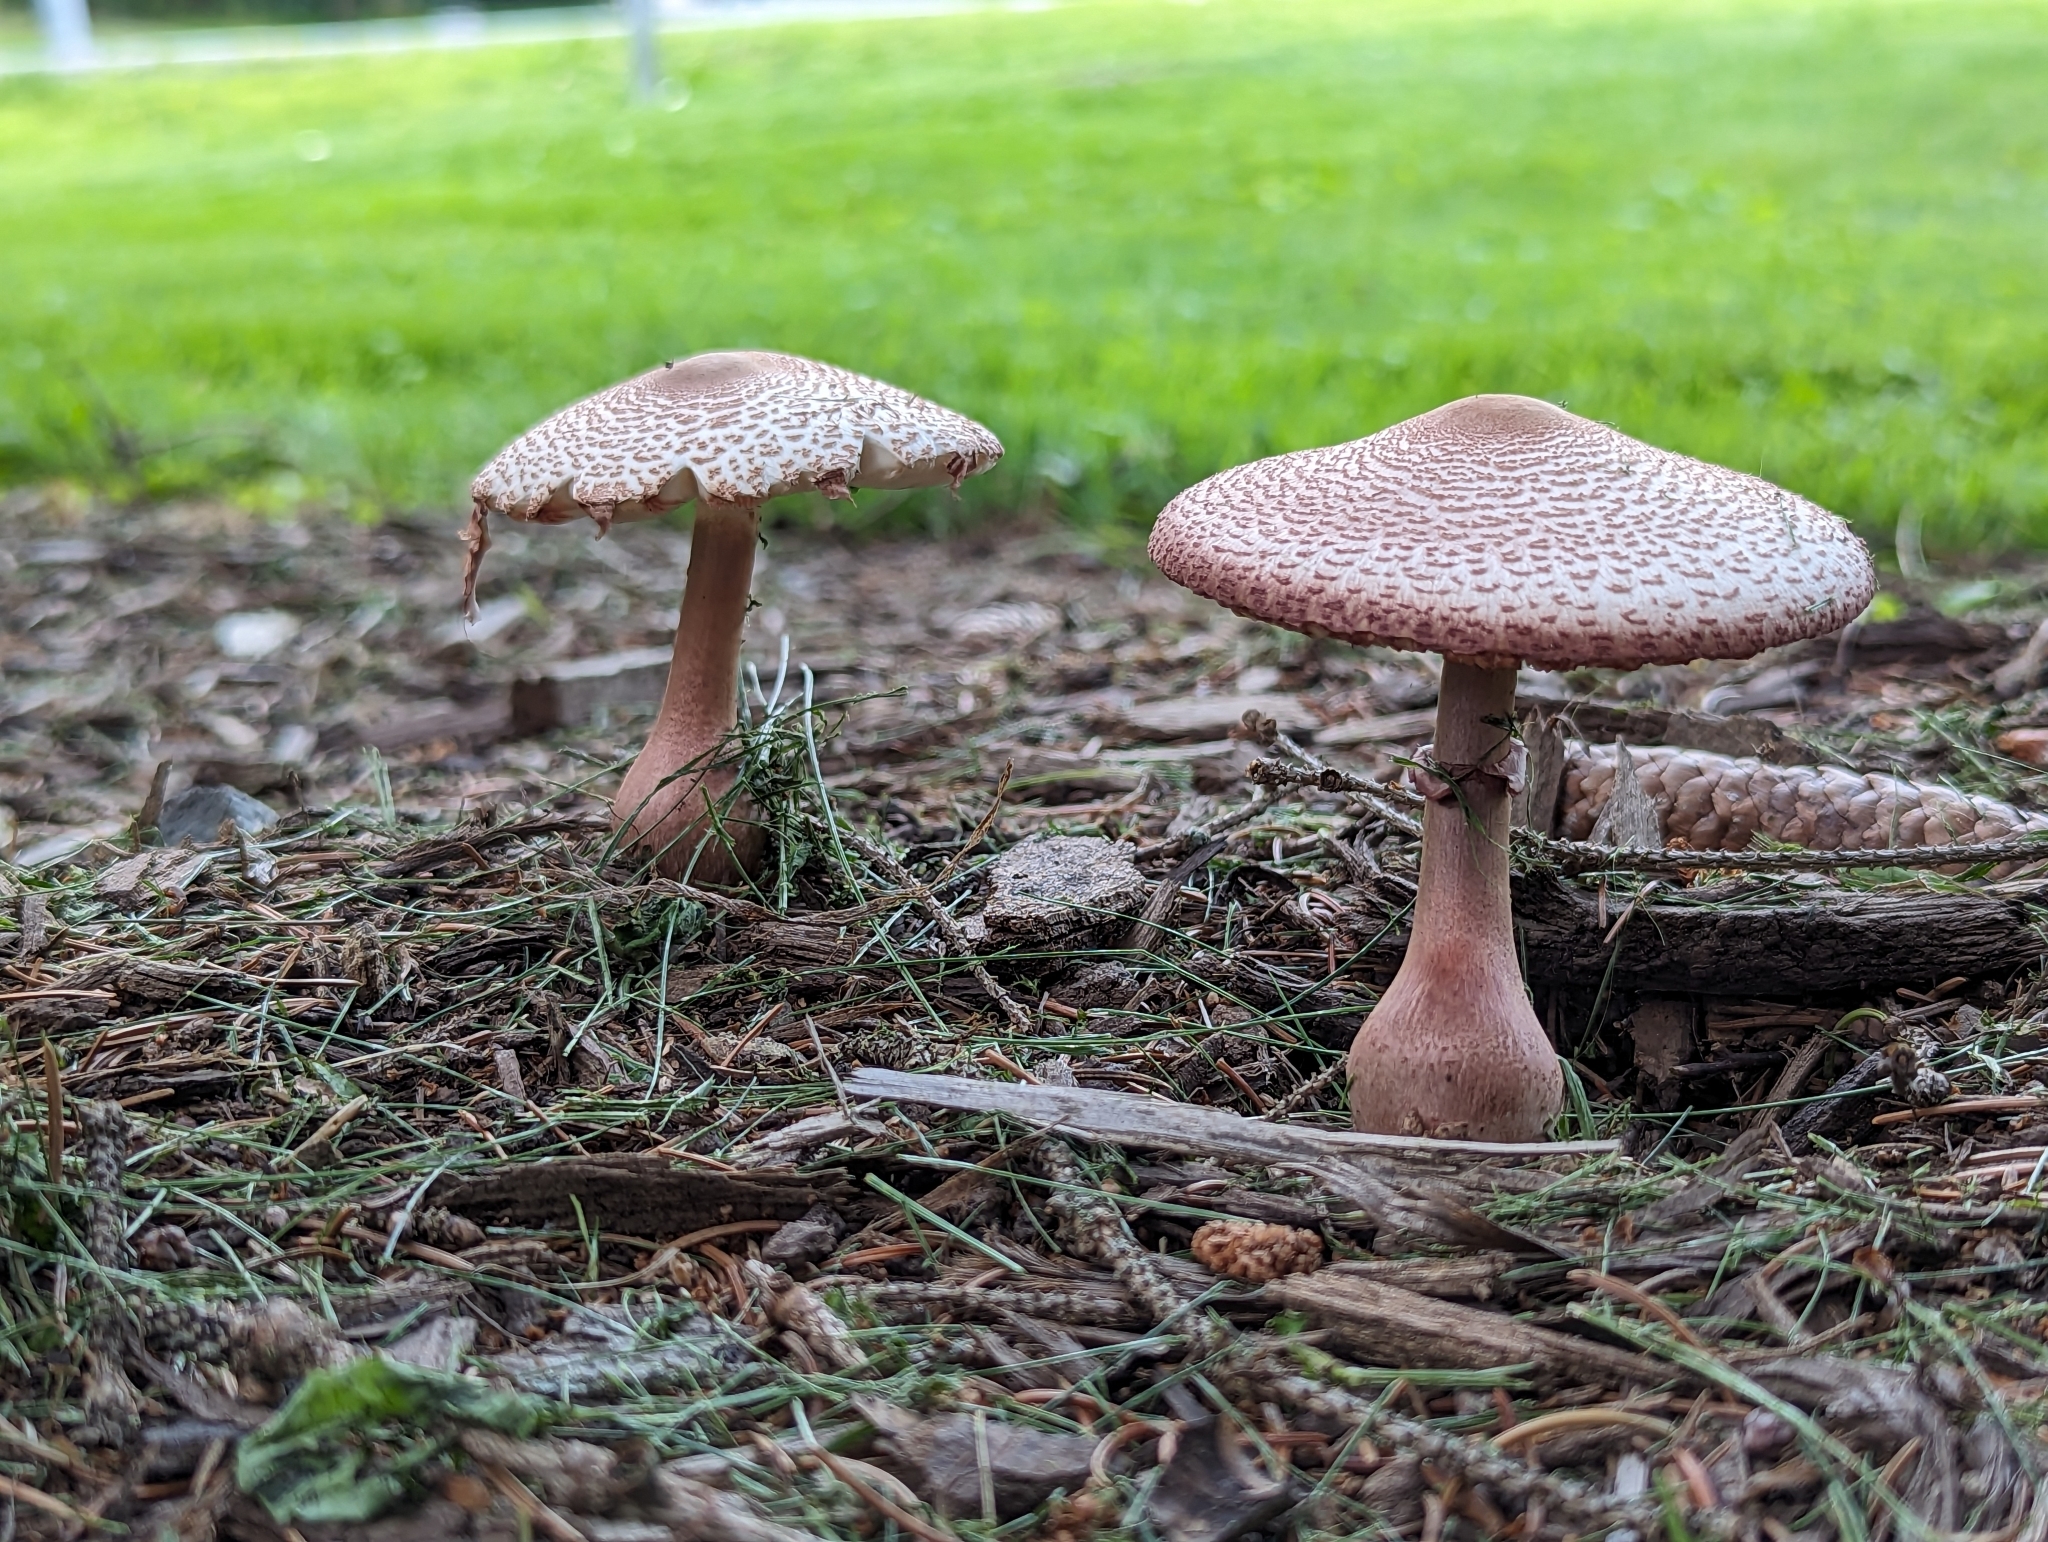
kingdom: Fungi
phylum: Basidiomycota
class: Agaricomycetes
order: Agaricales
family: Agaricaceae
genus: Leucoagaricus
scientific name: Leucoagaricus americanus
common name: Reddening lepiota
